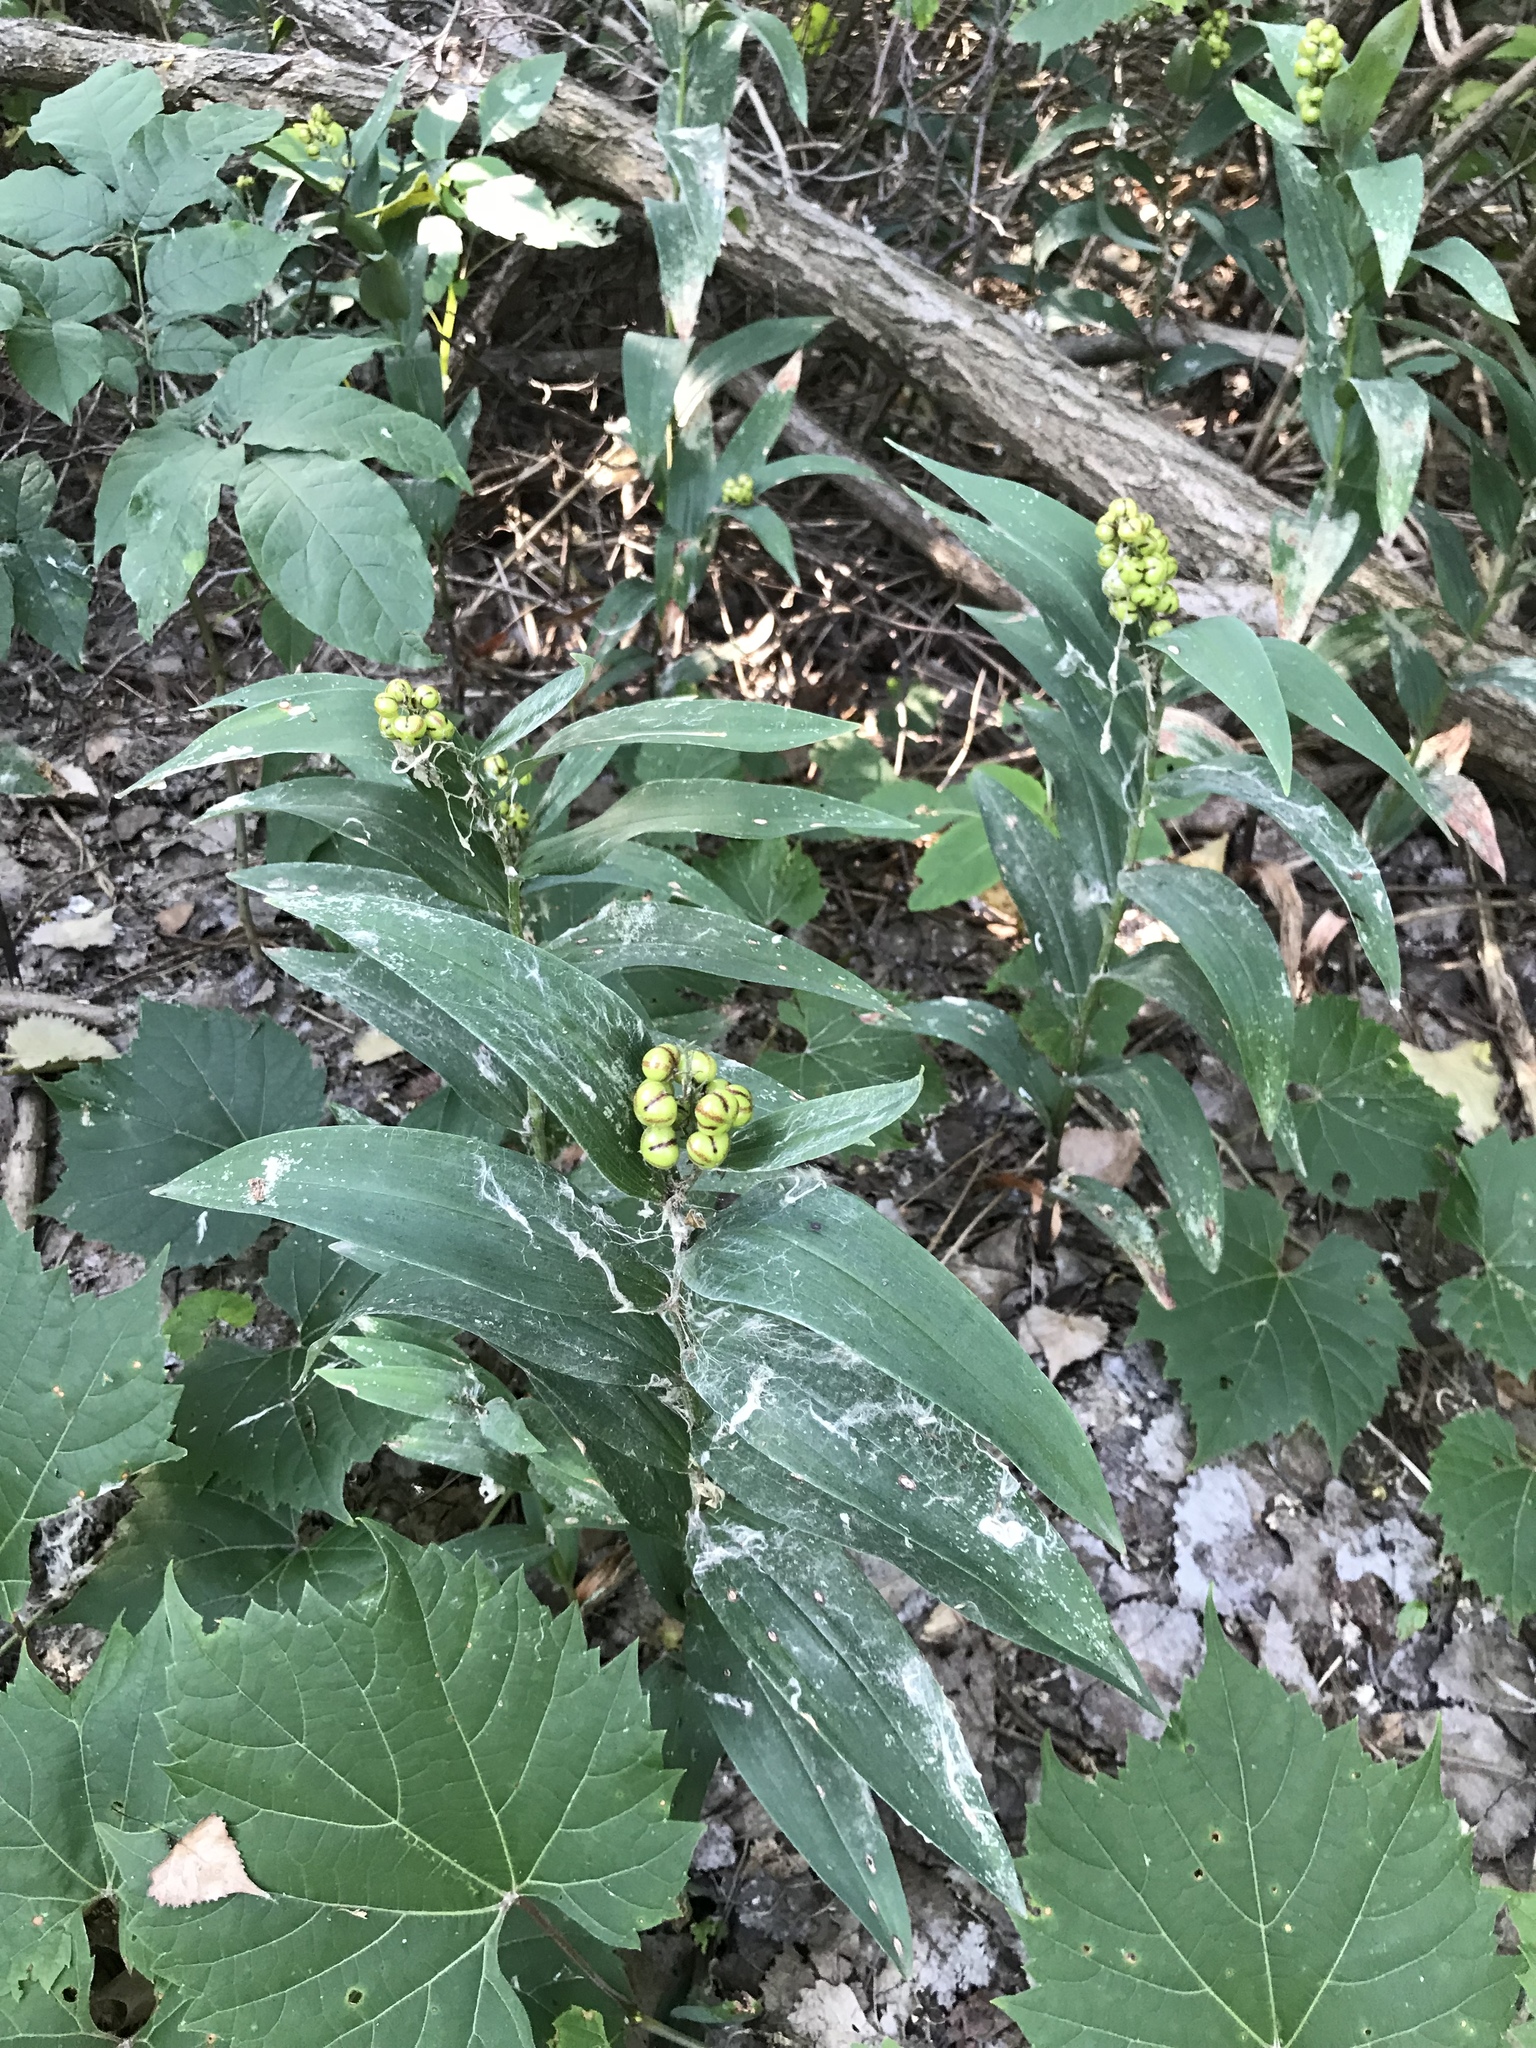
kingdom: Plantae
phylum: Tracheophyta
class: Liliopsida
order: Asparagales
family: Asparagaceae
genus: Maianthemum
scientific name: Maianthemum stellatum
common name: Little false solomon's seal
